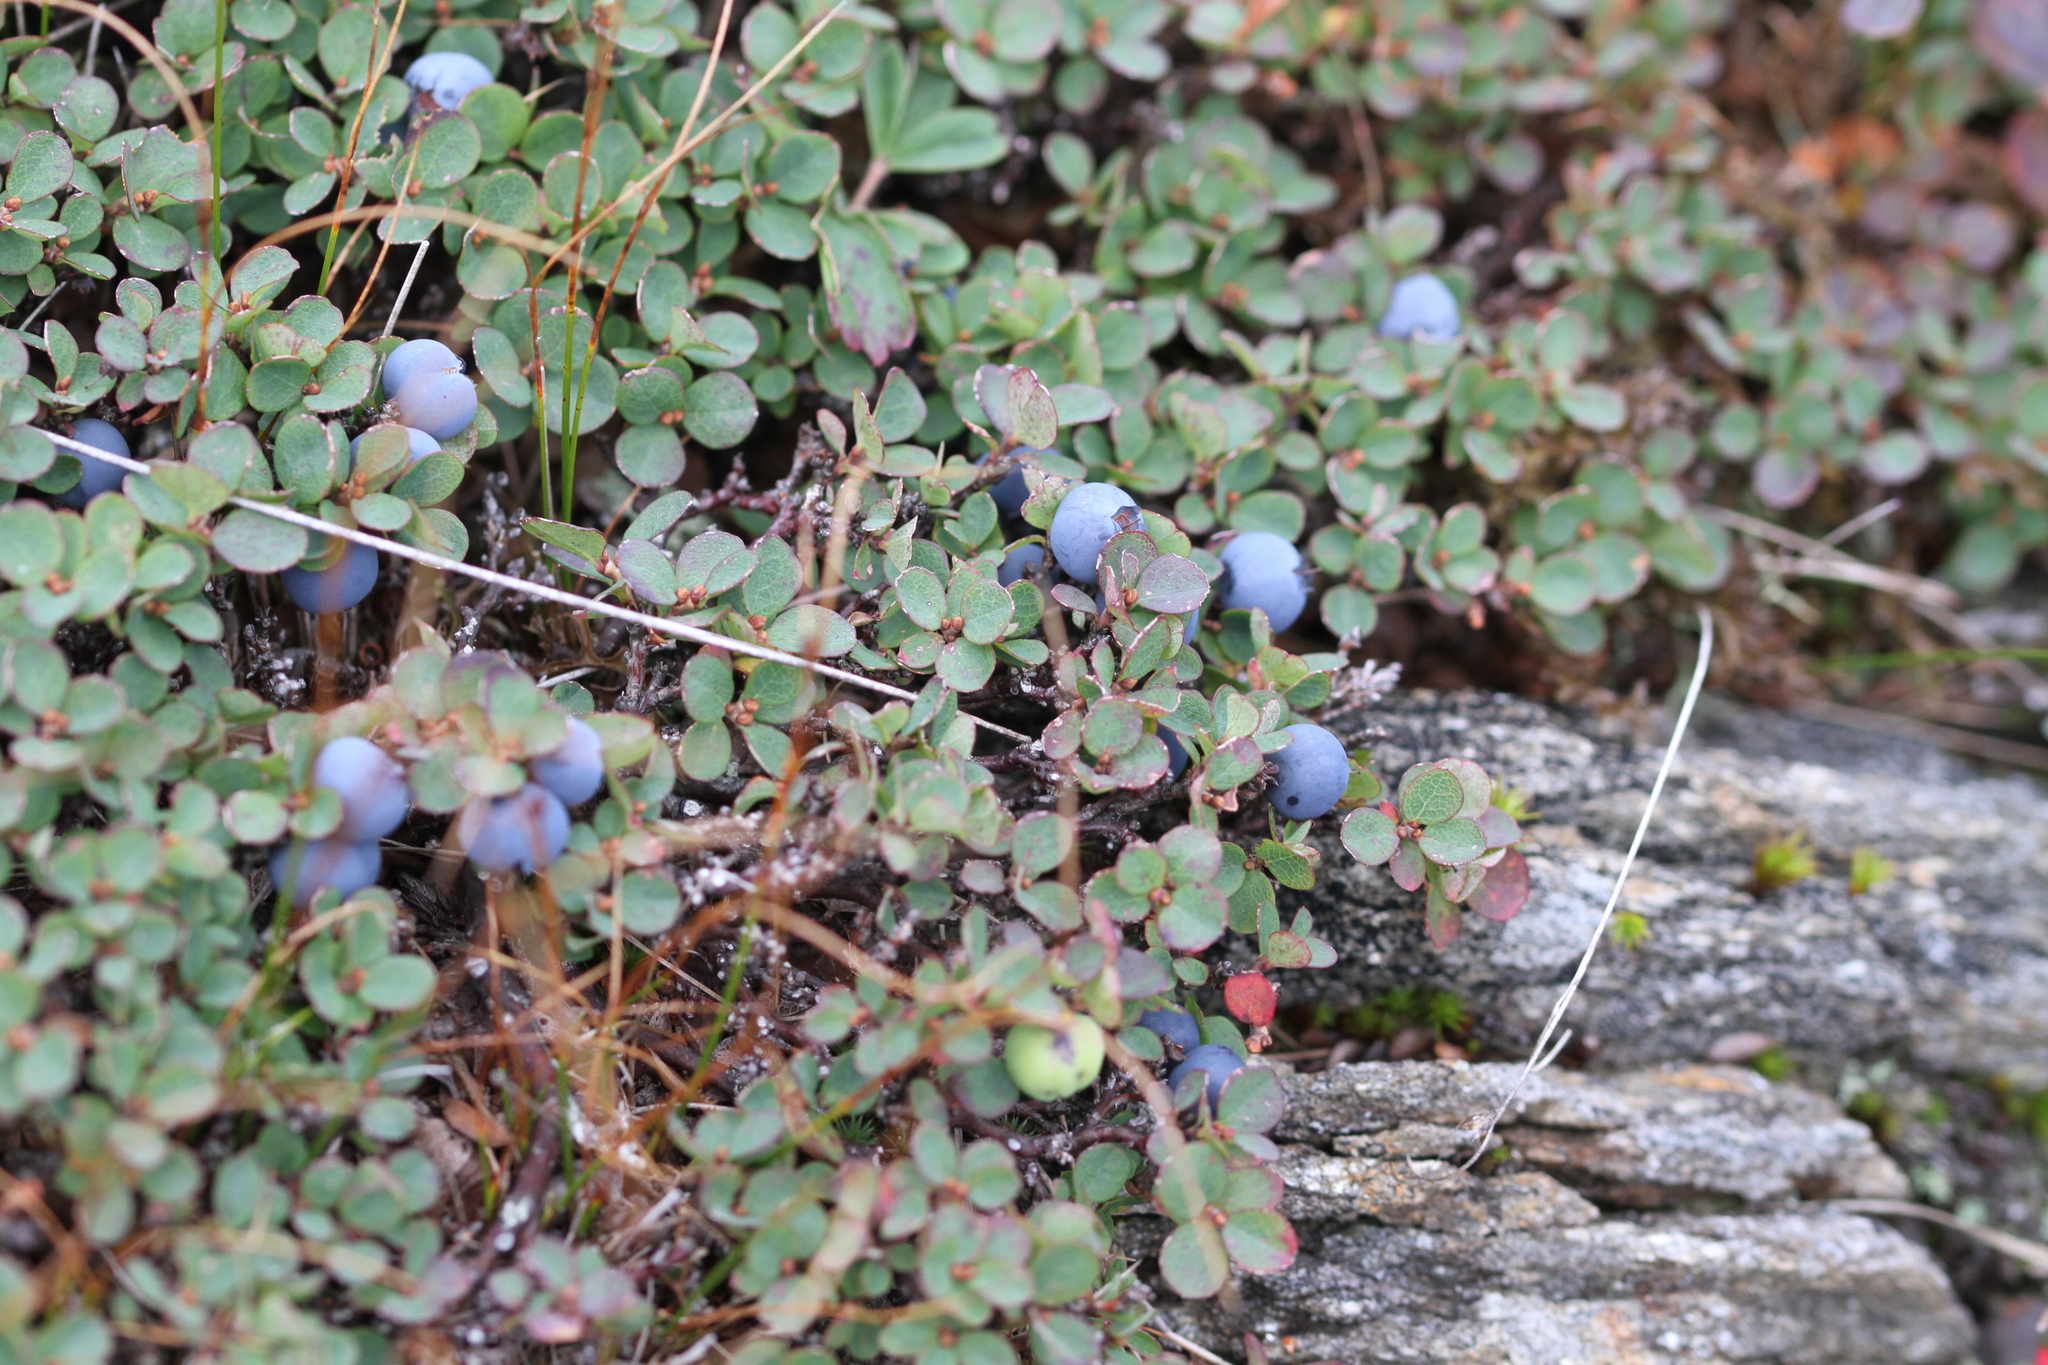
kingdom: Plantae
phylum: Tracheophyta
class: Magnoliopsida
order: Ericales
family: Ericaceae
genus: Vaccinium
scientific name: Vaccinium uliginosum
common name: Bog bilberry
